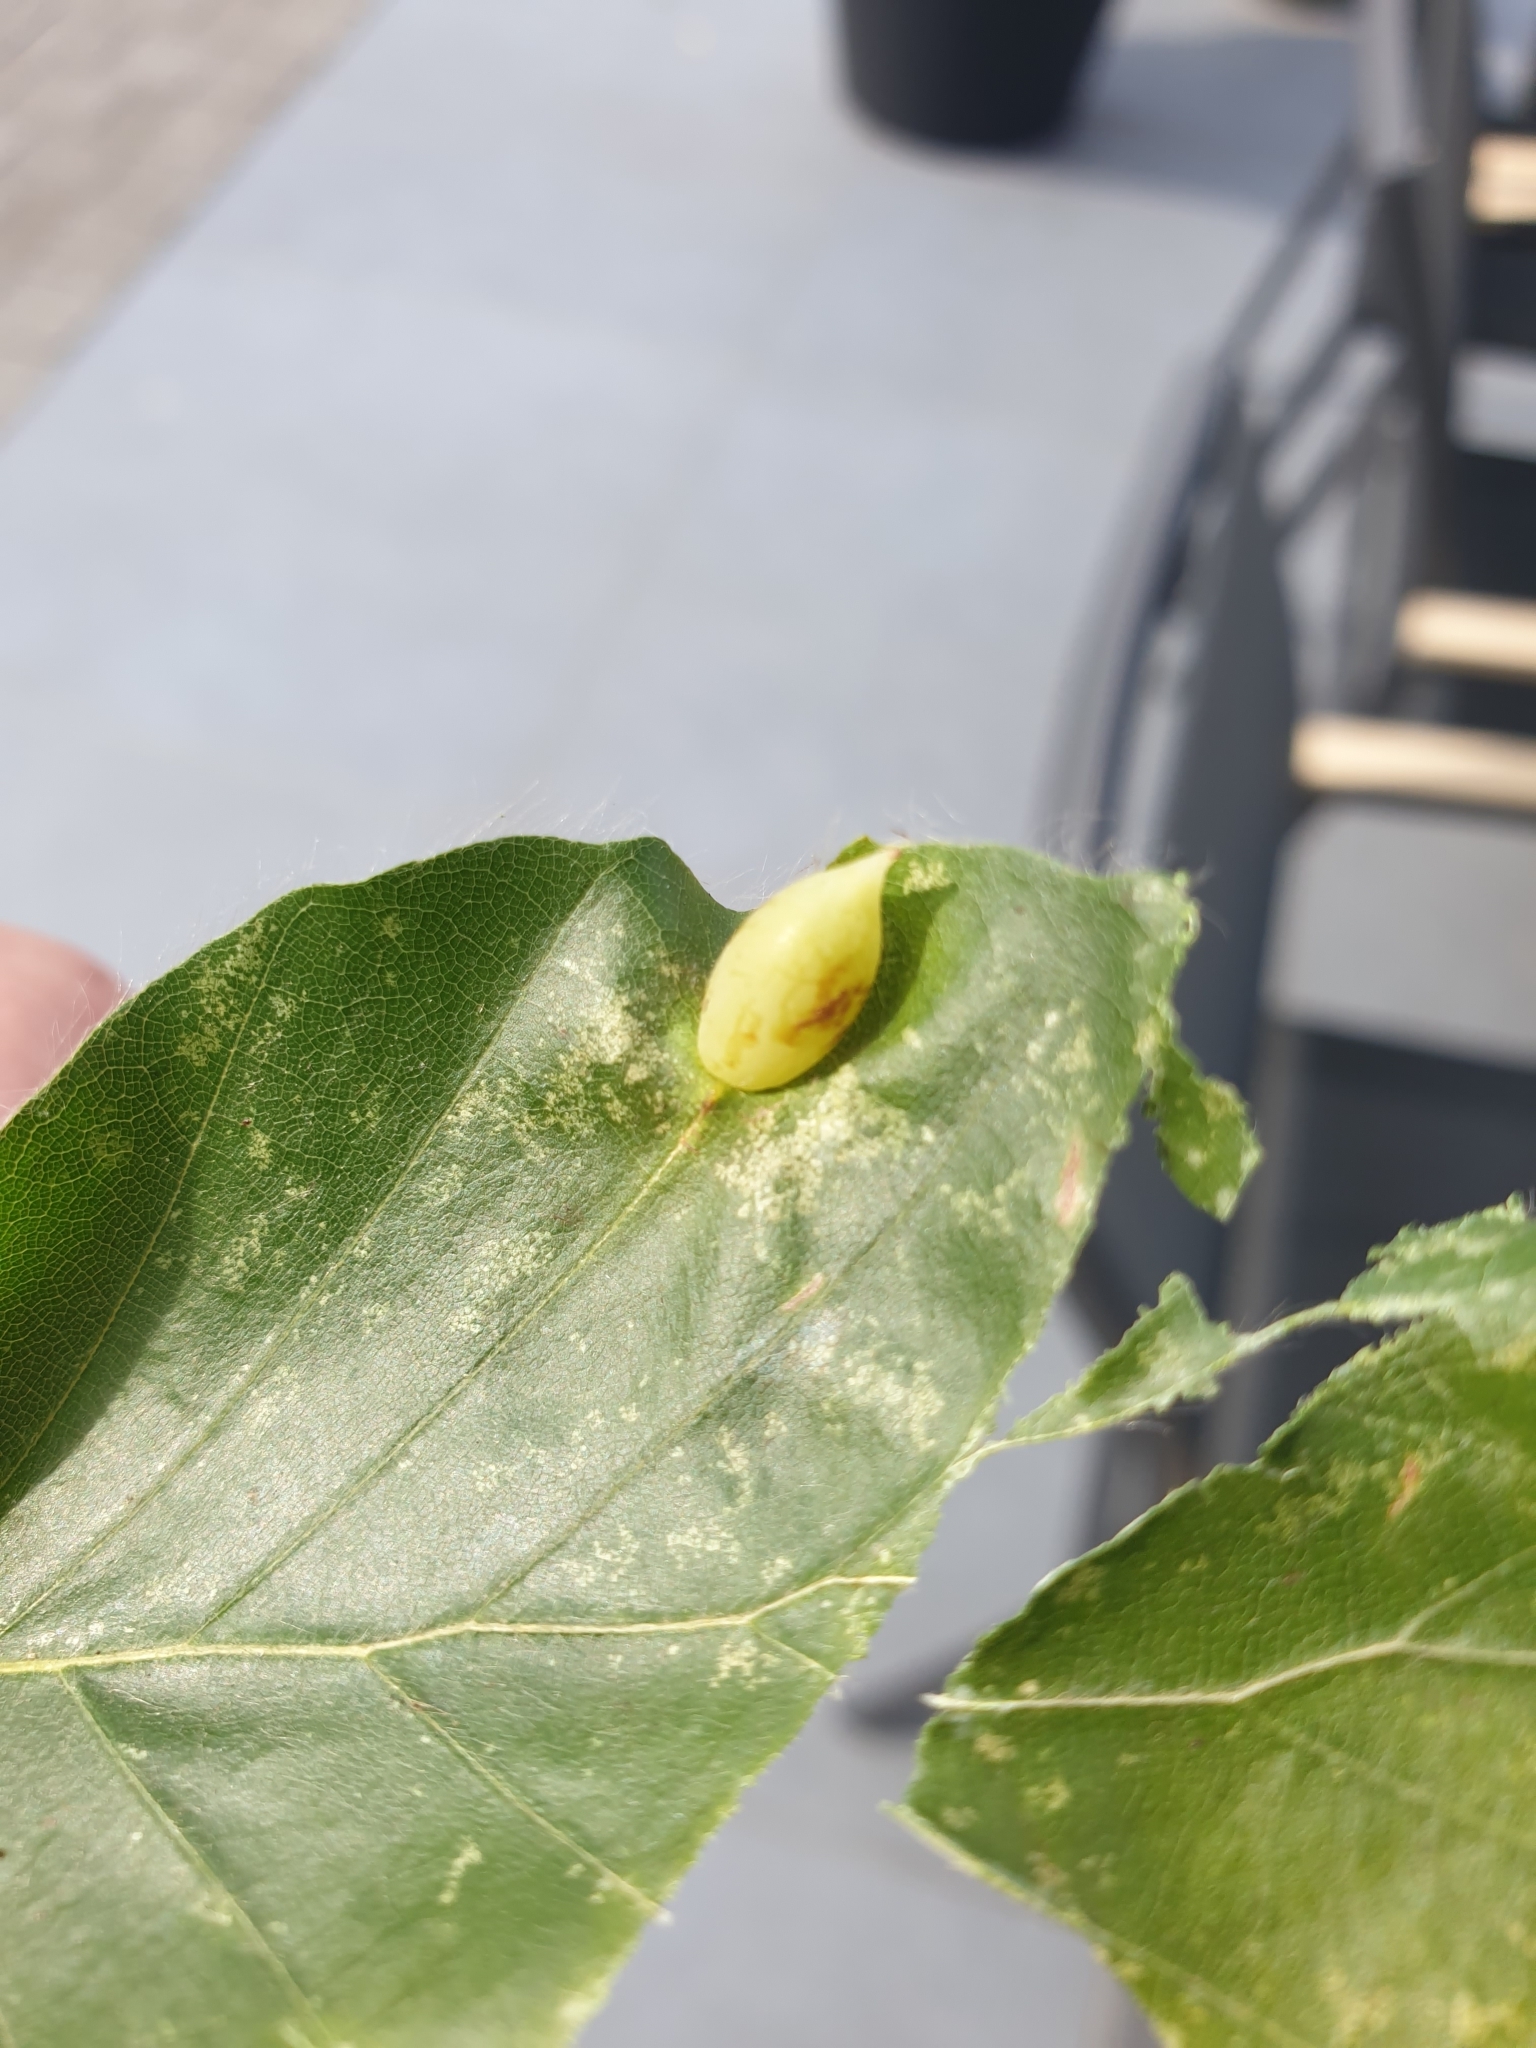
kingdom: Animalia
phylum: Arthropoda
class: Insecta
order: Diptera
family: Cecidomyiidae
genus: Mikiola
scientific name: Mikiola fagi
